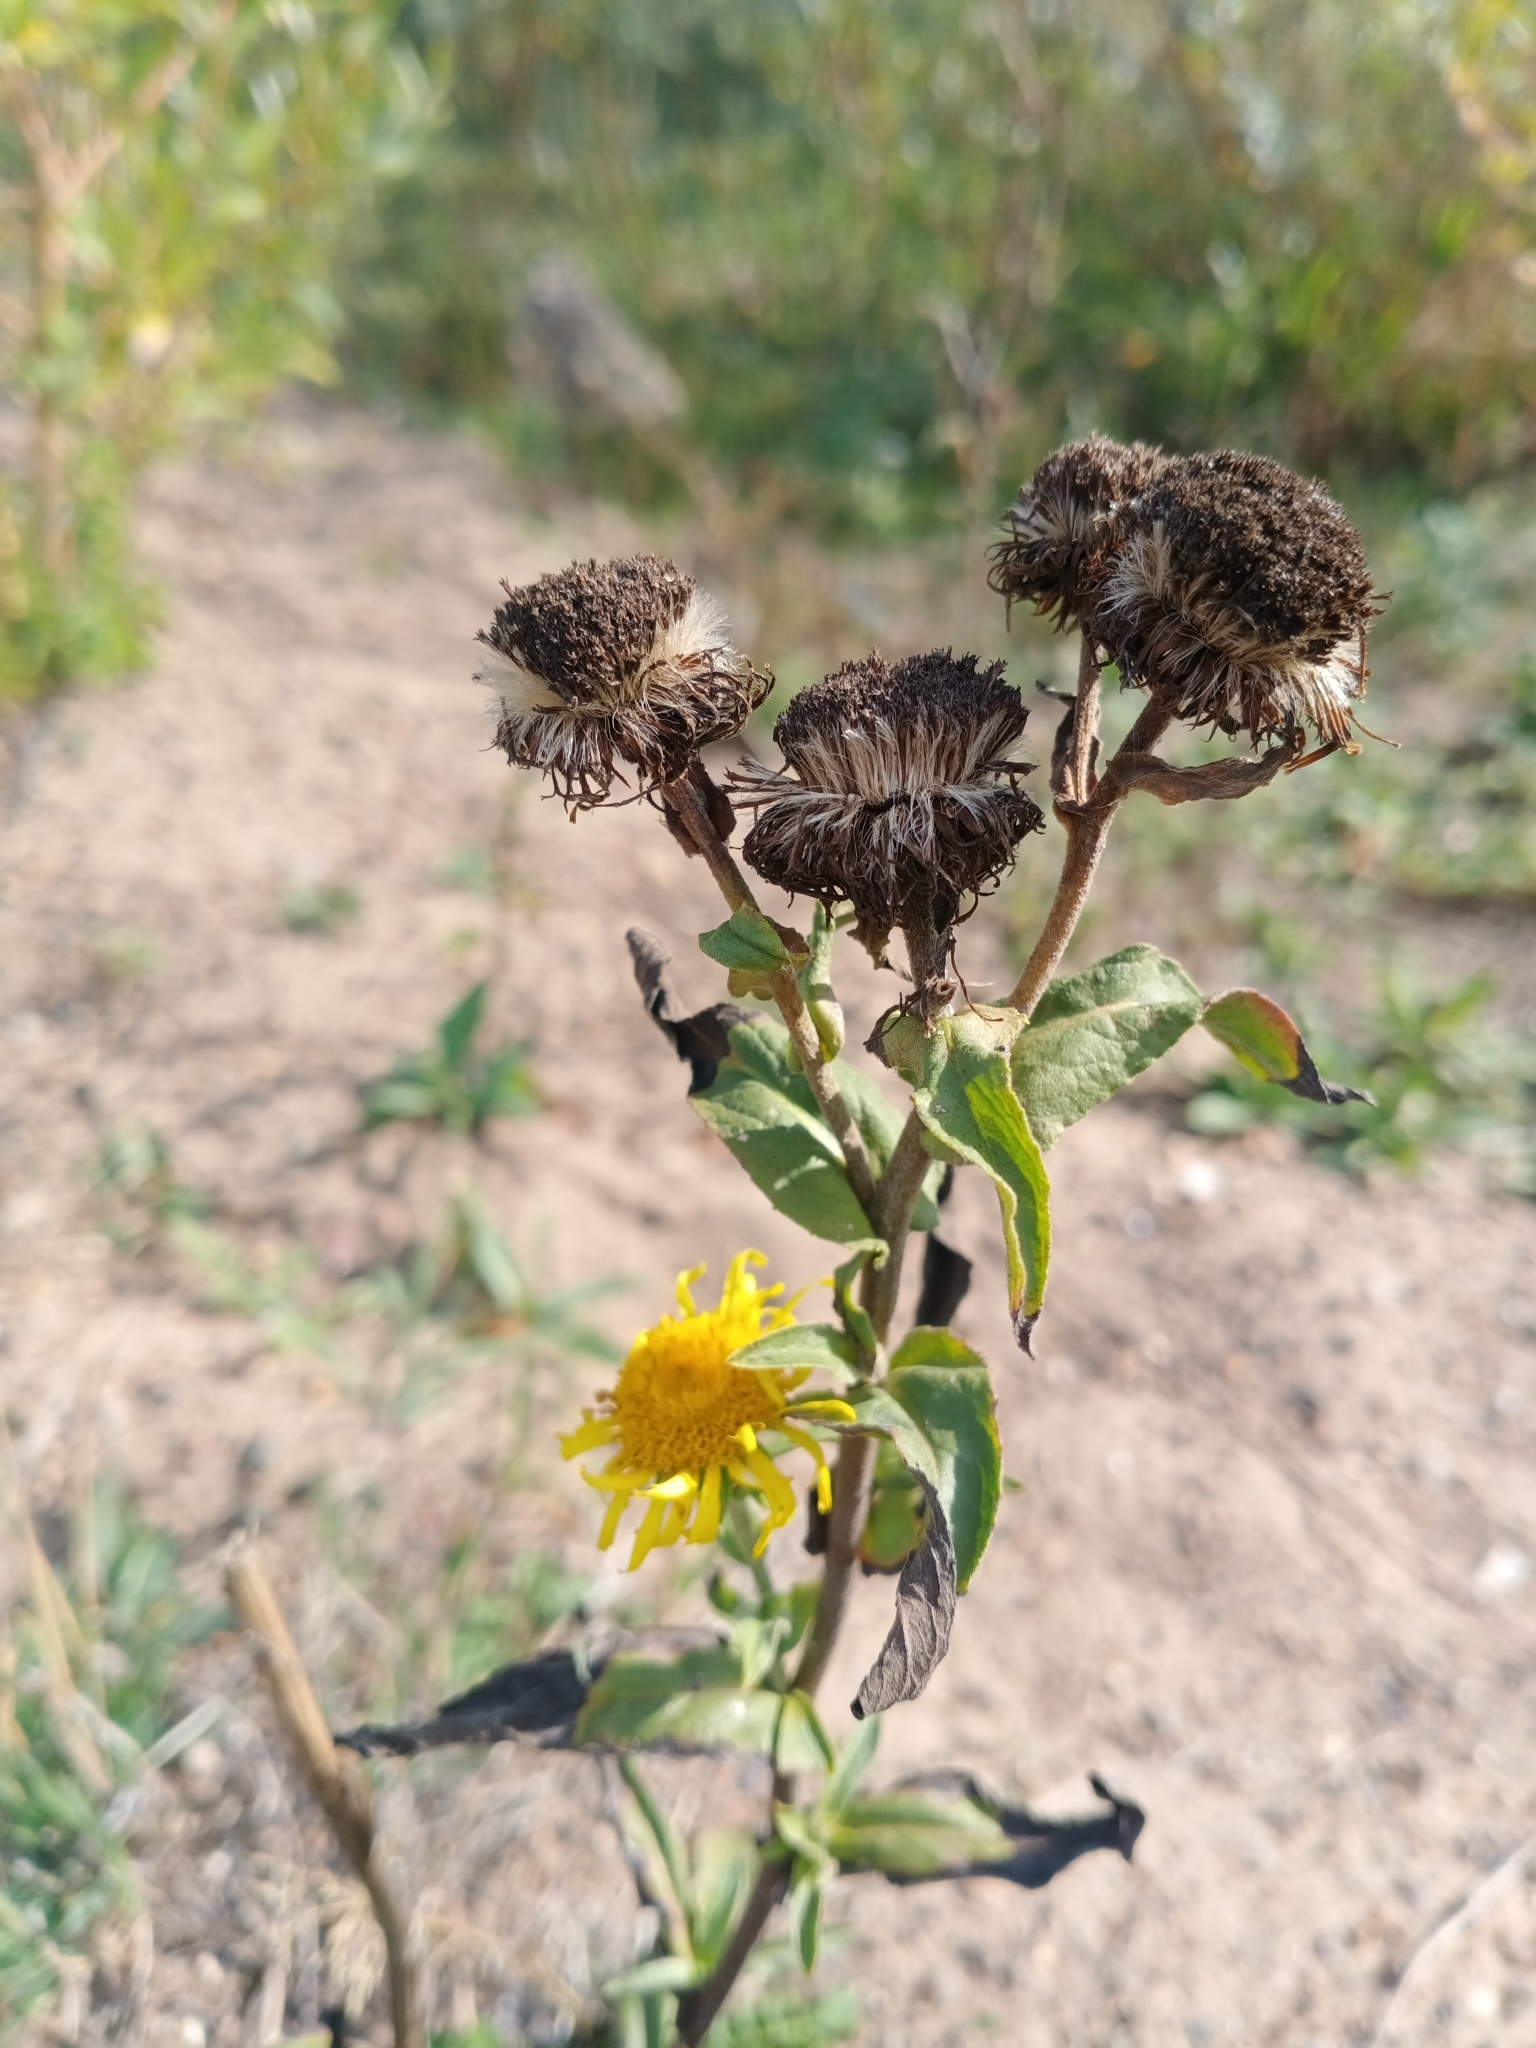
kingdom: Plantae
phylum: Tracheophyta
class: Magnoliopsida
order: Asterales
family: Asteraceae
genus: Pentanema
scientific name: Pentanema britannicum
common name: British elecampane
